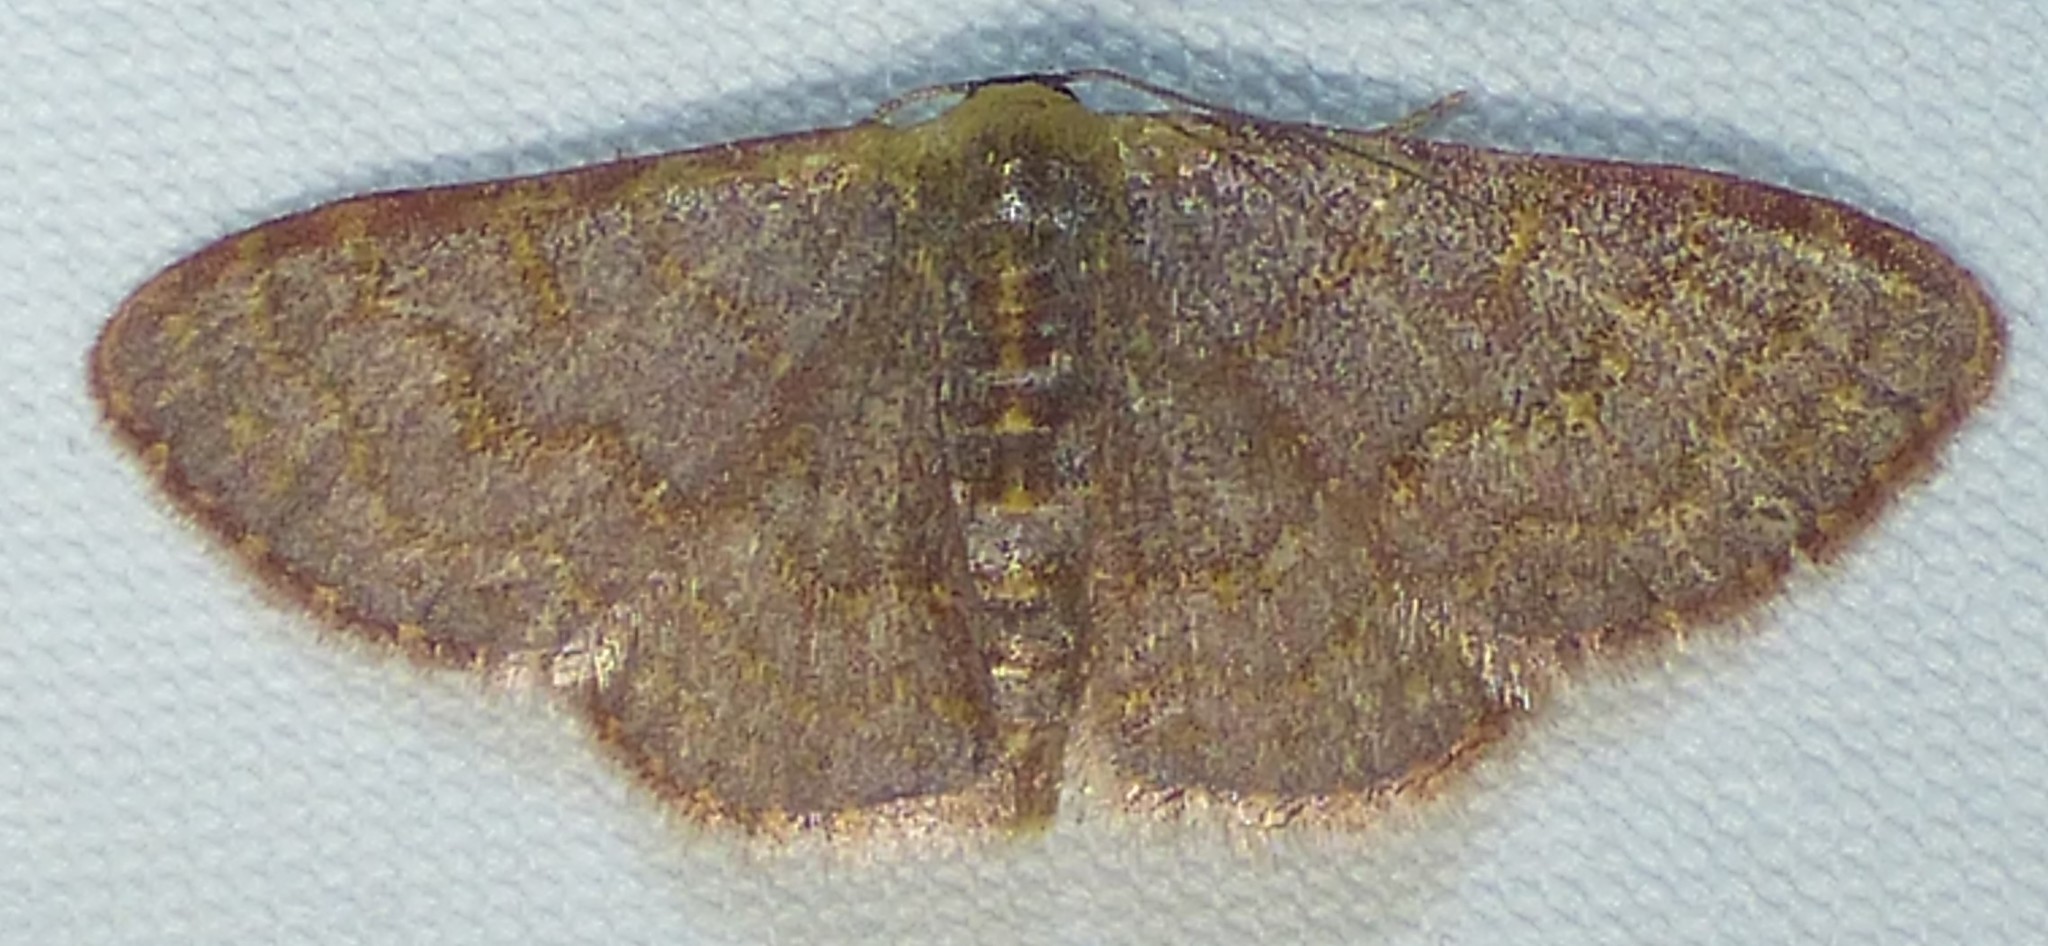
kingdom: Animalia
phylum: Arthropoda
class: Insecta
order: Lepidoptera
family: Geometridae
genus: Leptostales
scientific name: Leptostales pannaria
